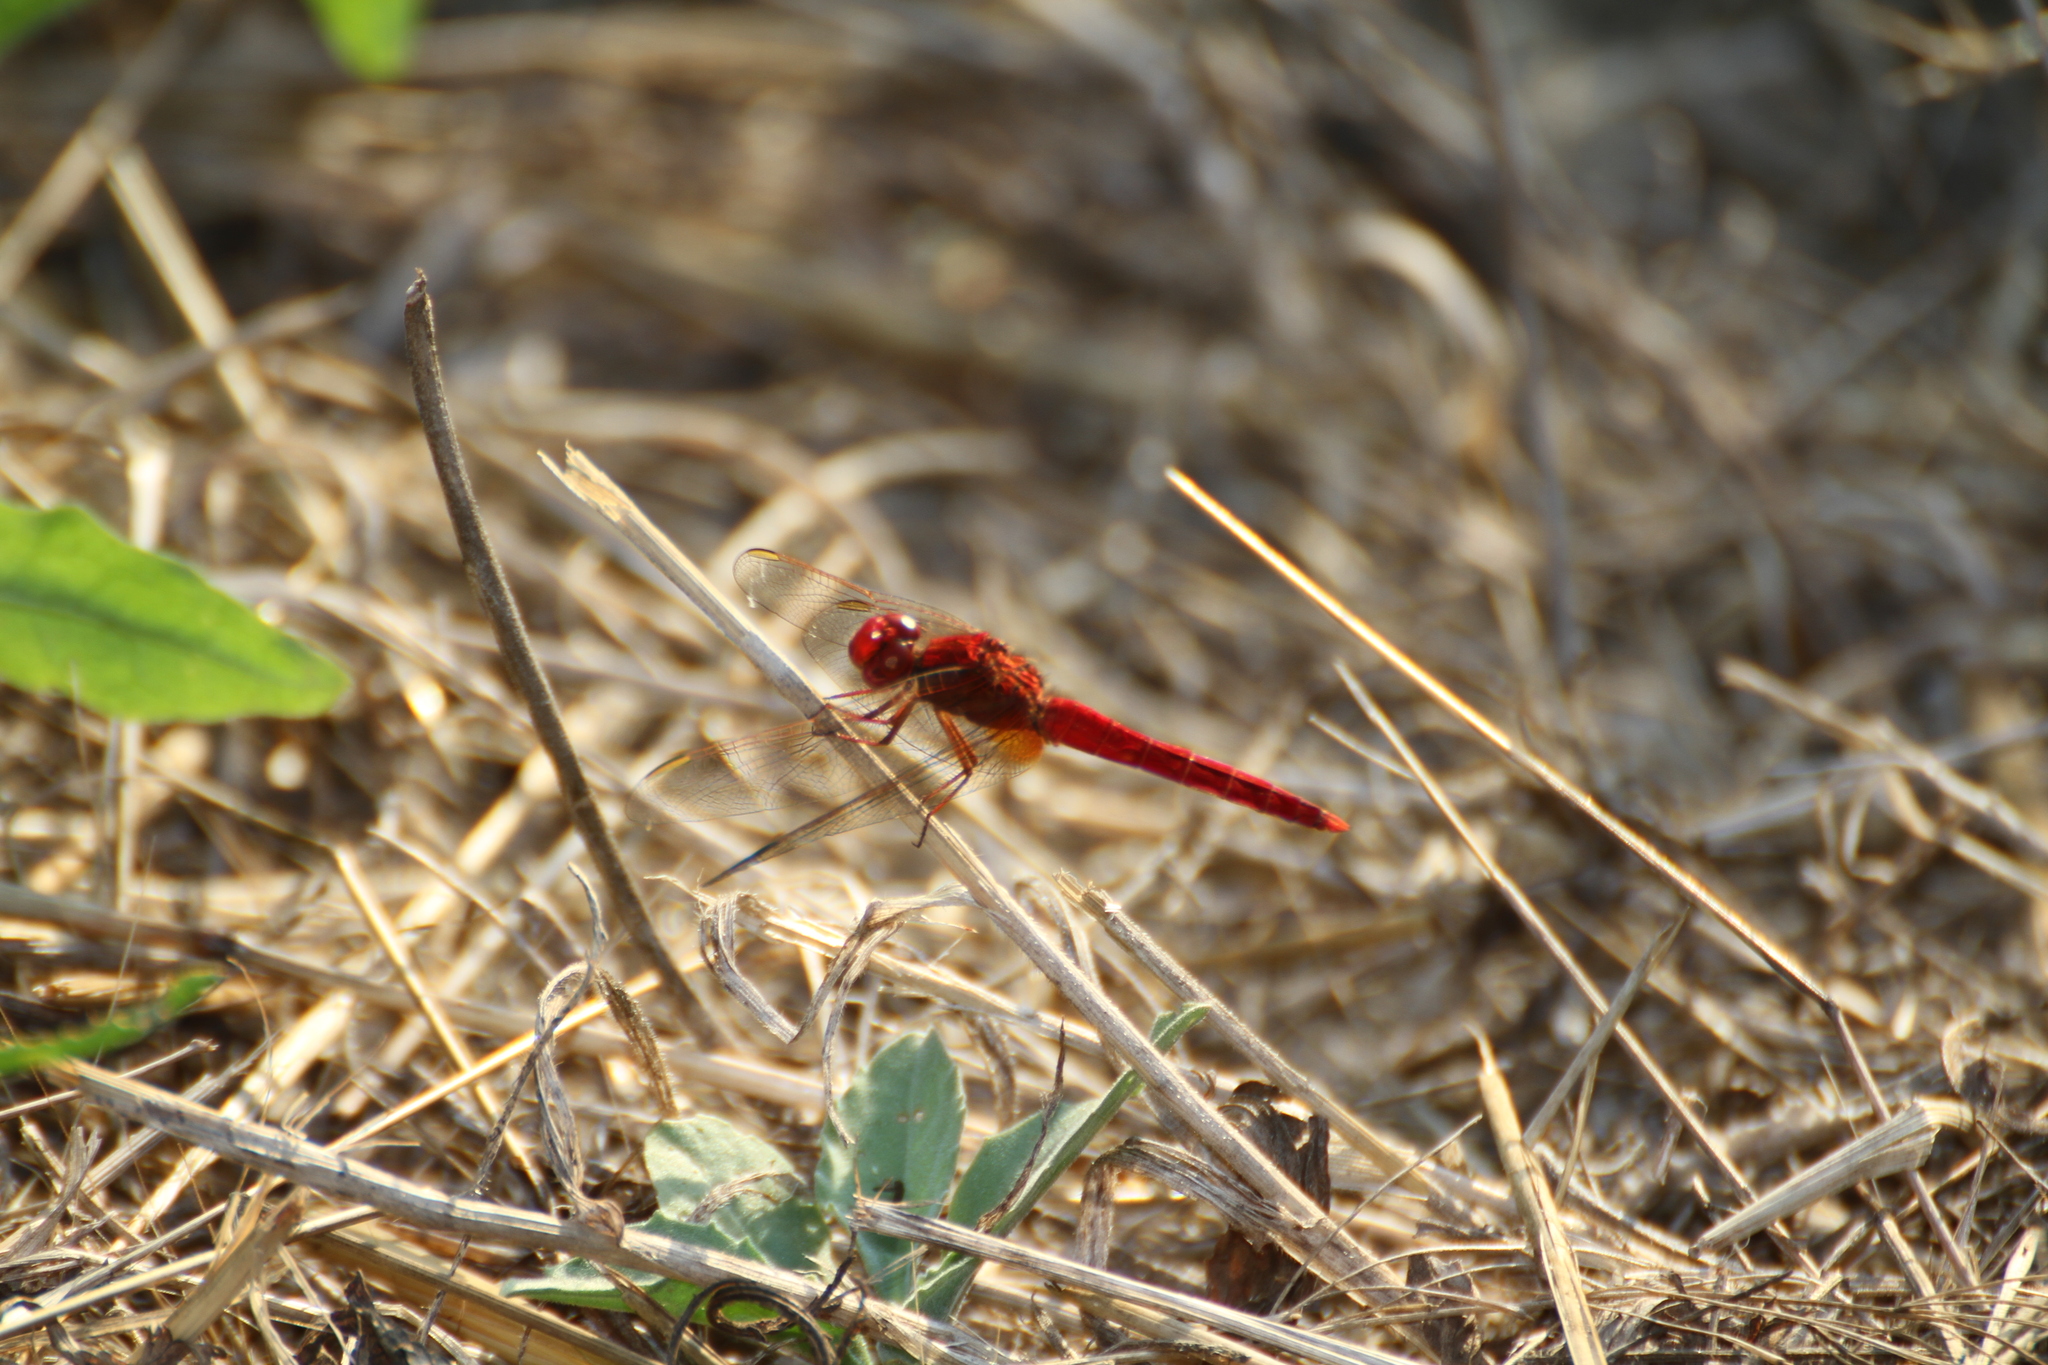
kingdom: Animalia
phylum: Arthropoda
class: Insecta
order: Odonata
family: Libellulidae
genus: Crocothemis
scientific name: Crocothemis erythraea
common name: Scarlet dragonfly
